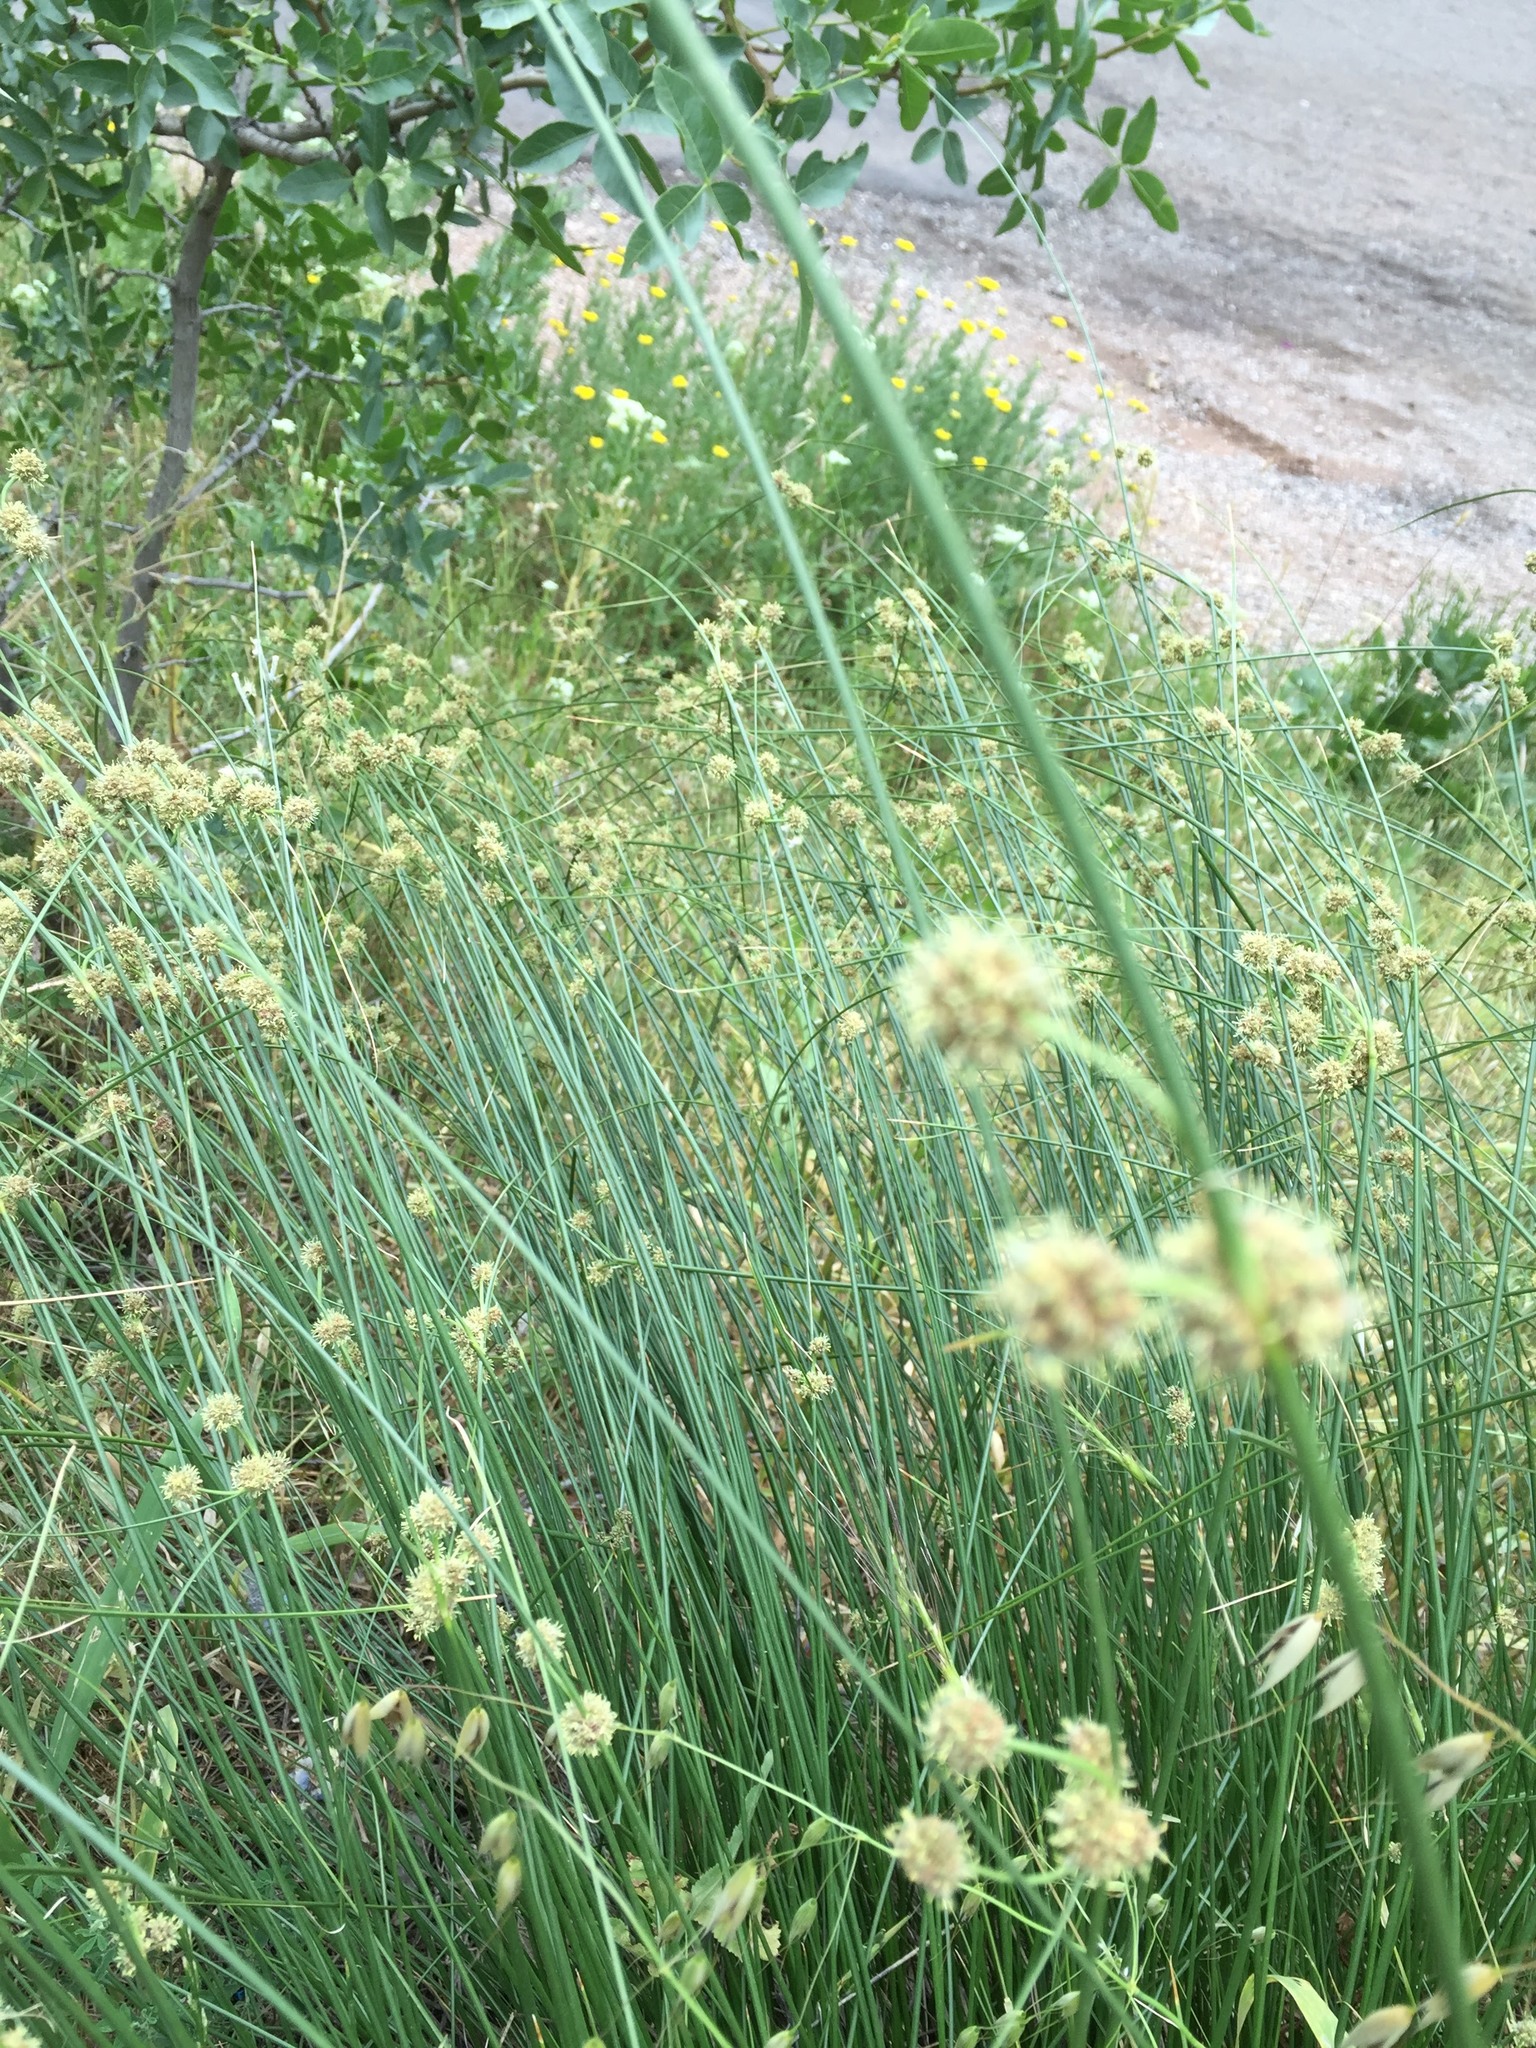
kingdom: Plantae
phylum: Tracheophyta
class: Liliopsida
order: Poales
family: Cyperaceae
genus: Scirpoides
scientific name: Scirpoides holoschoenus
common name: Round-headed club-rush
